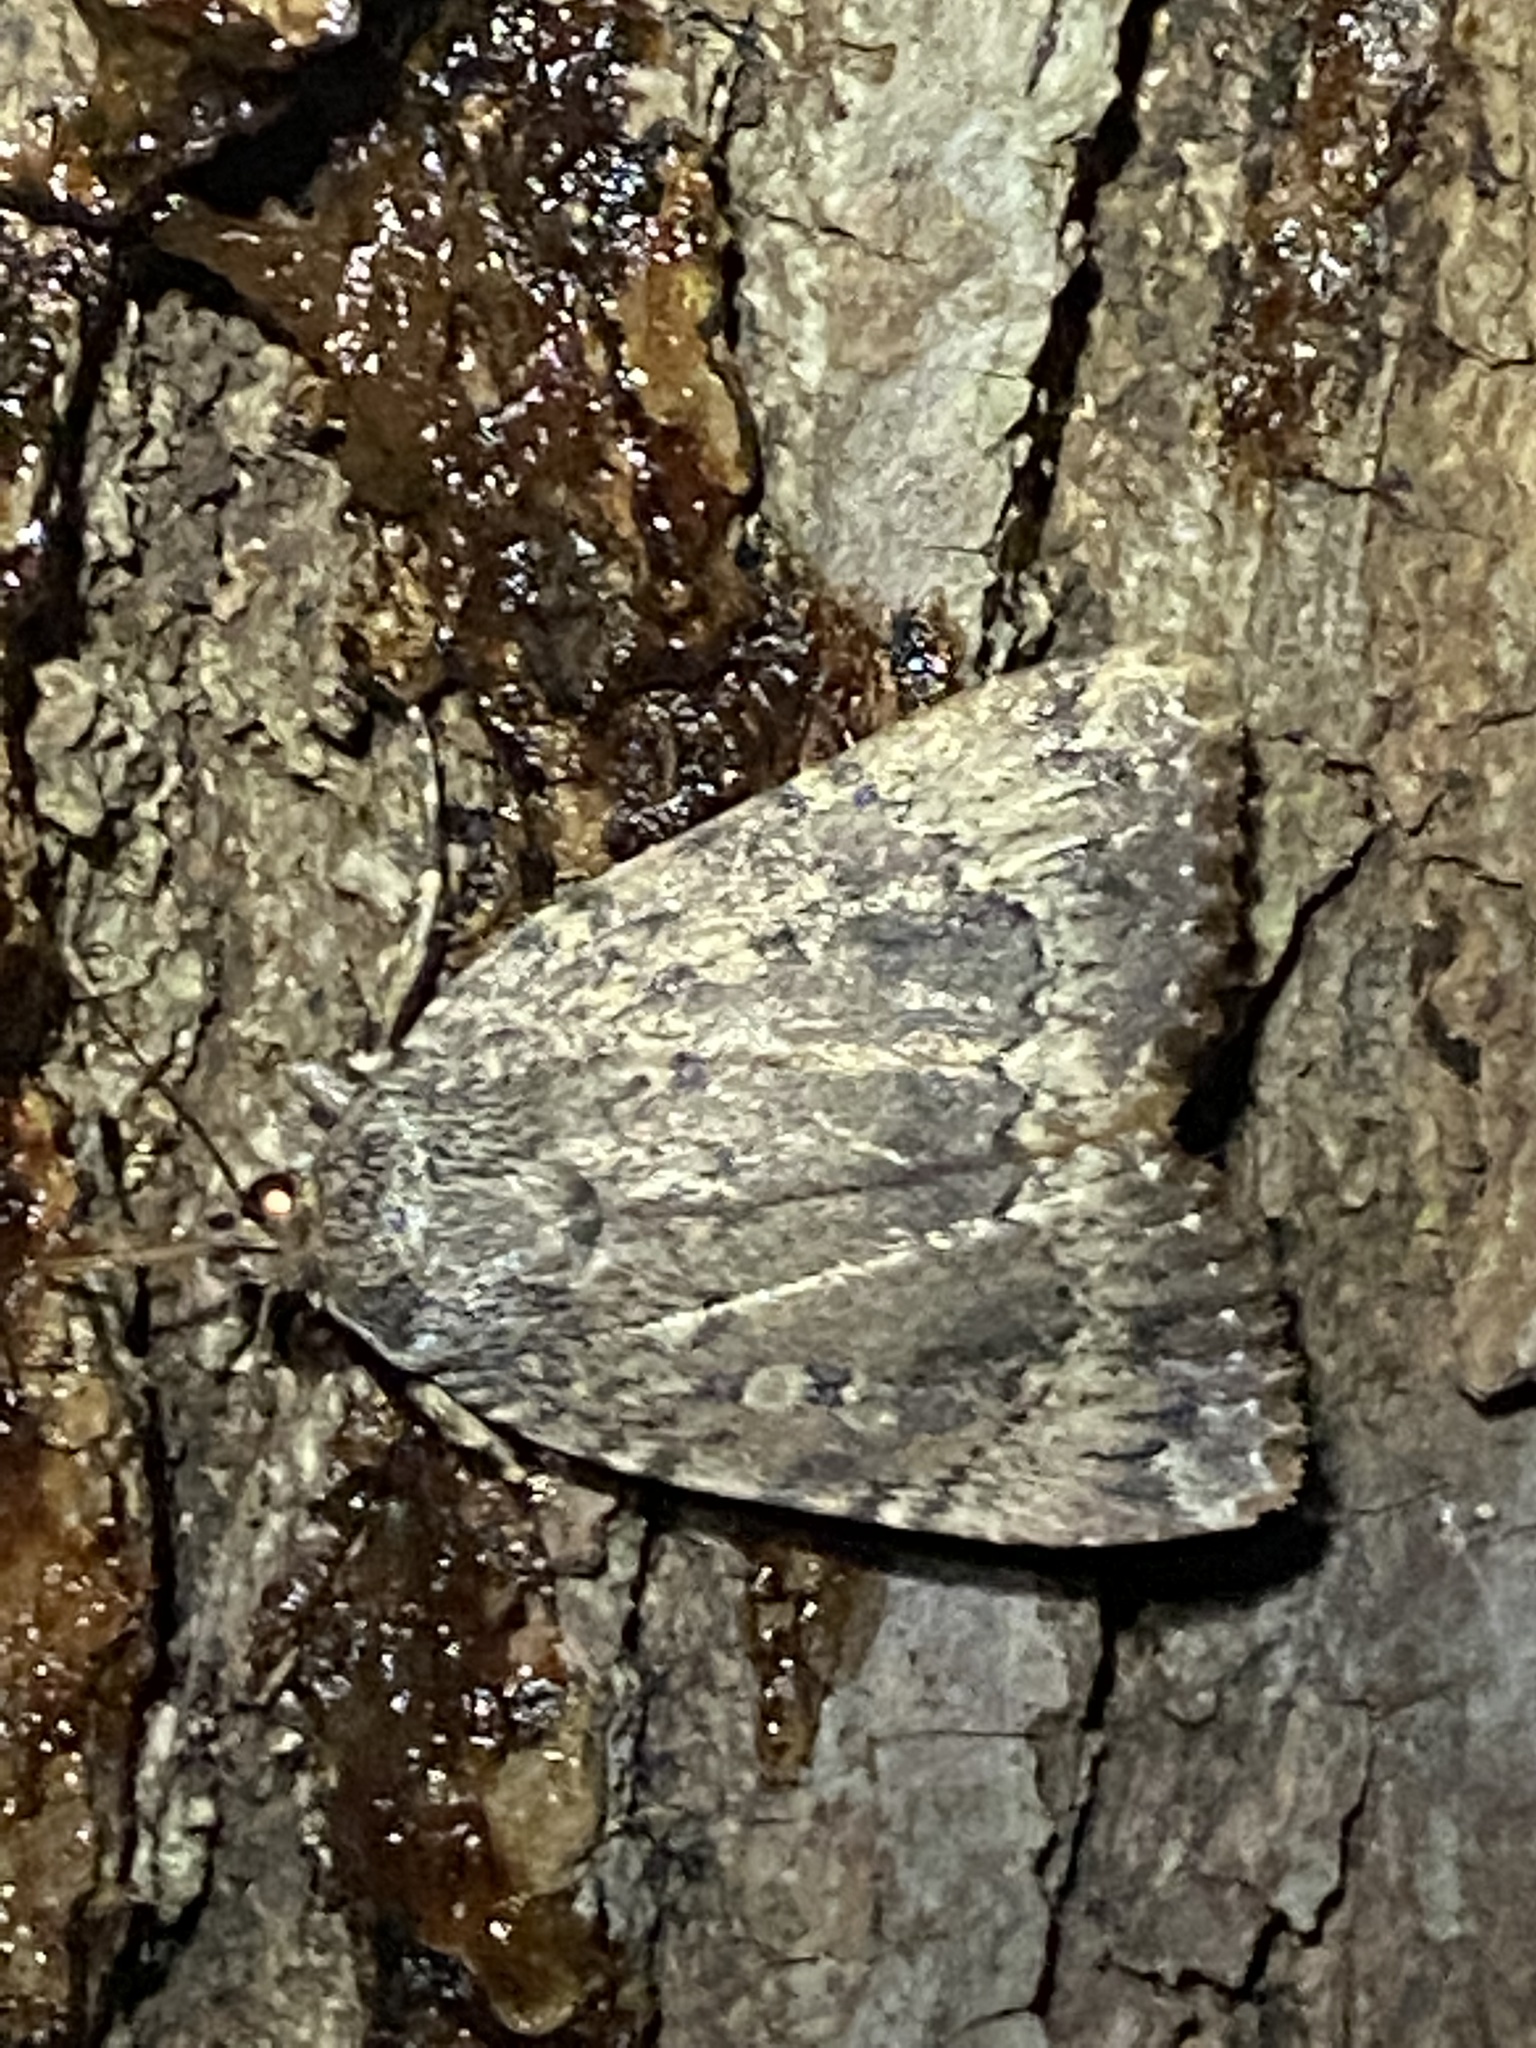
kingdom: Animalia
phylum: Arthropoda
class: Insecta
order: Lepidoptera
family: Noctuidae
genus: Amphipyra
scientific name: Amphipyra pyramidoides
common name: American copper underwing
